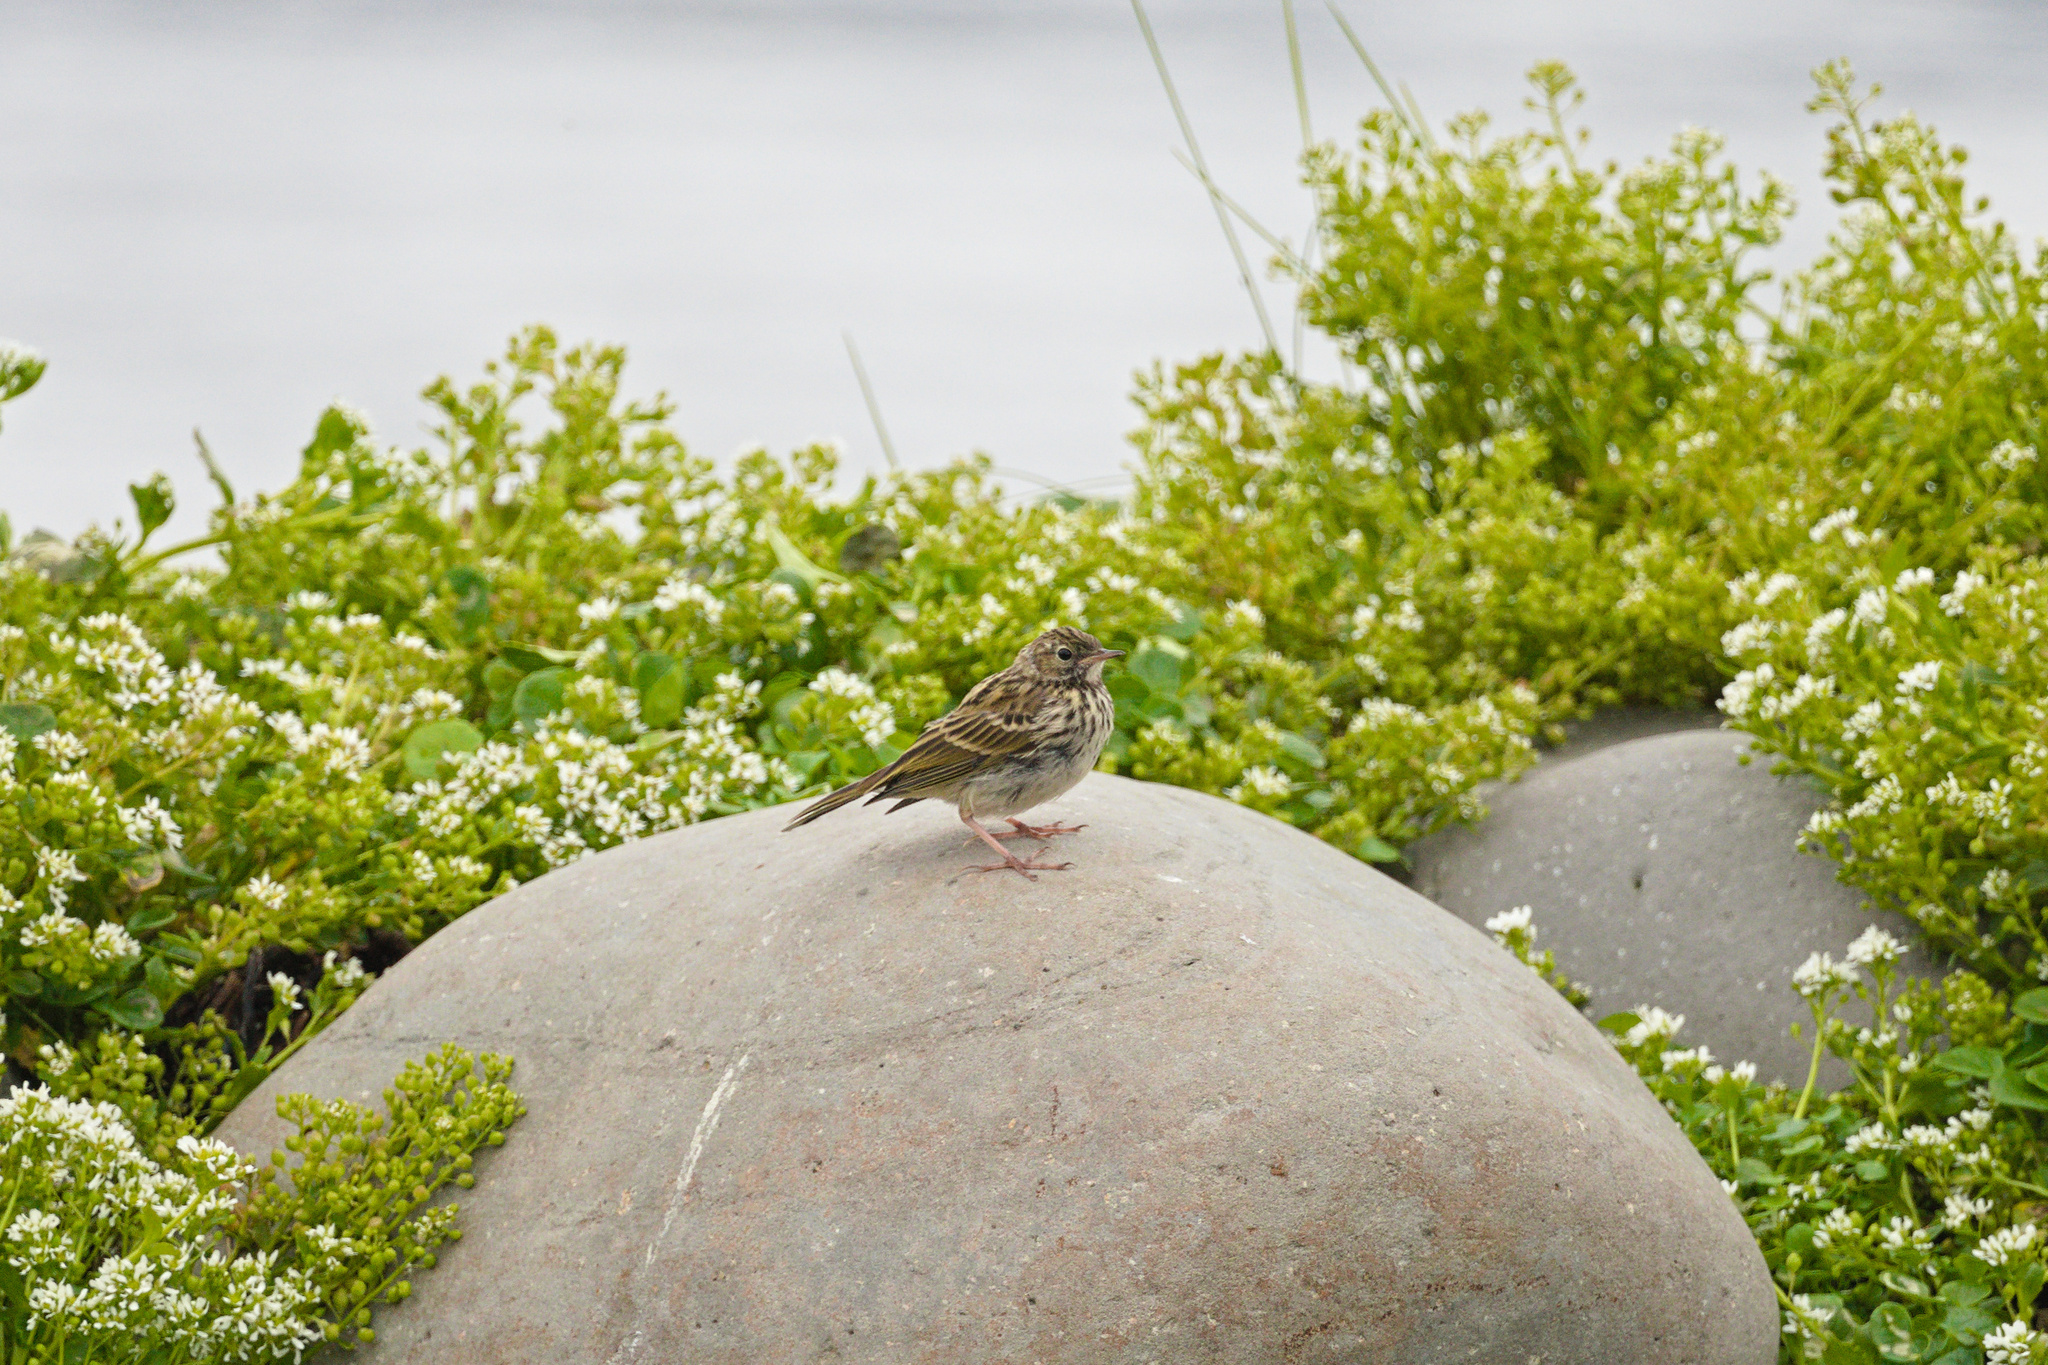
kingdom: Plantae
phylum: Tracheophyta
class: Magnoliopsida
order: Brassicales
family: Brassicaceae
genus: Cochlearia
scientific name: Cochlearia officinalis
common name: Scurvy-grass
